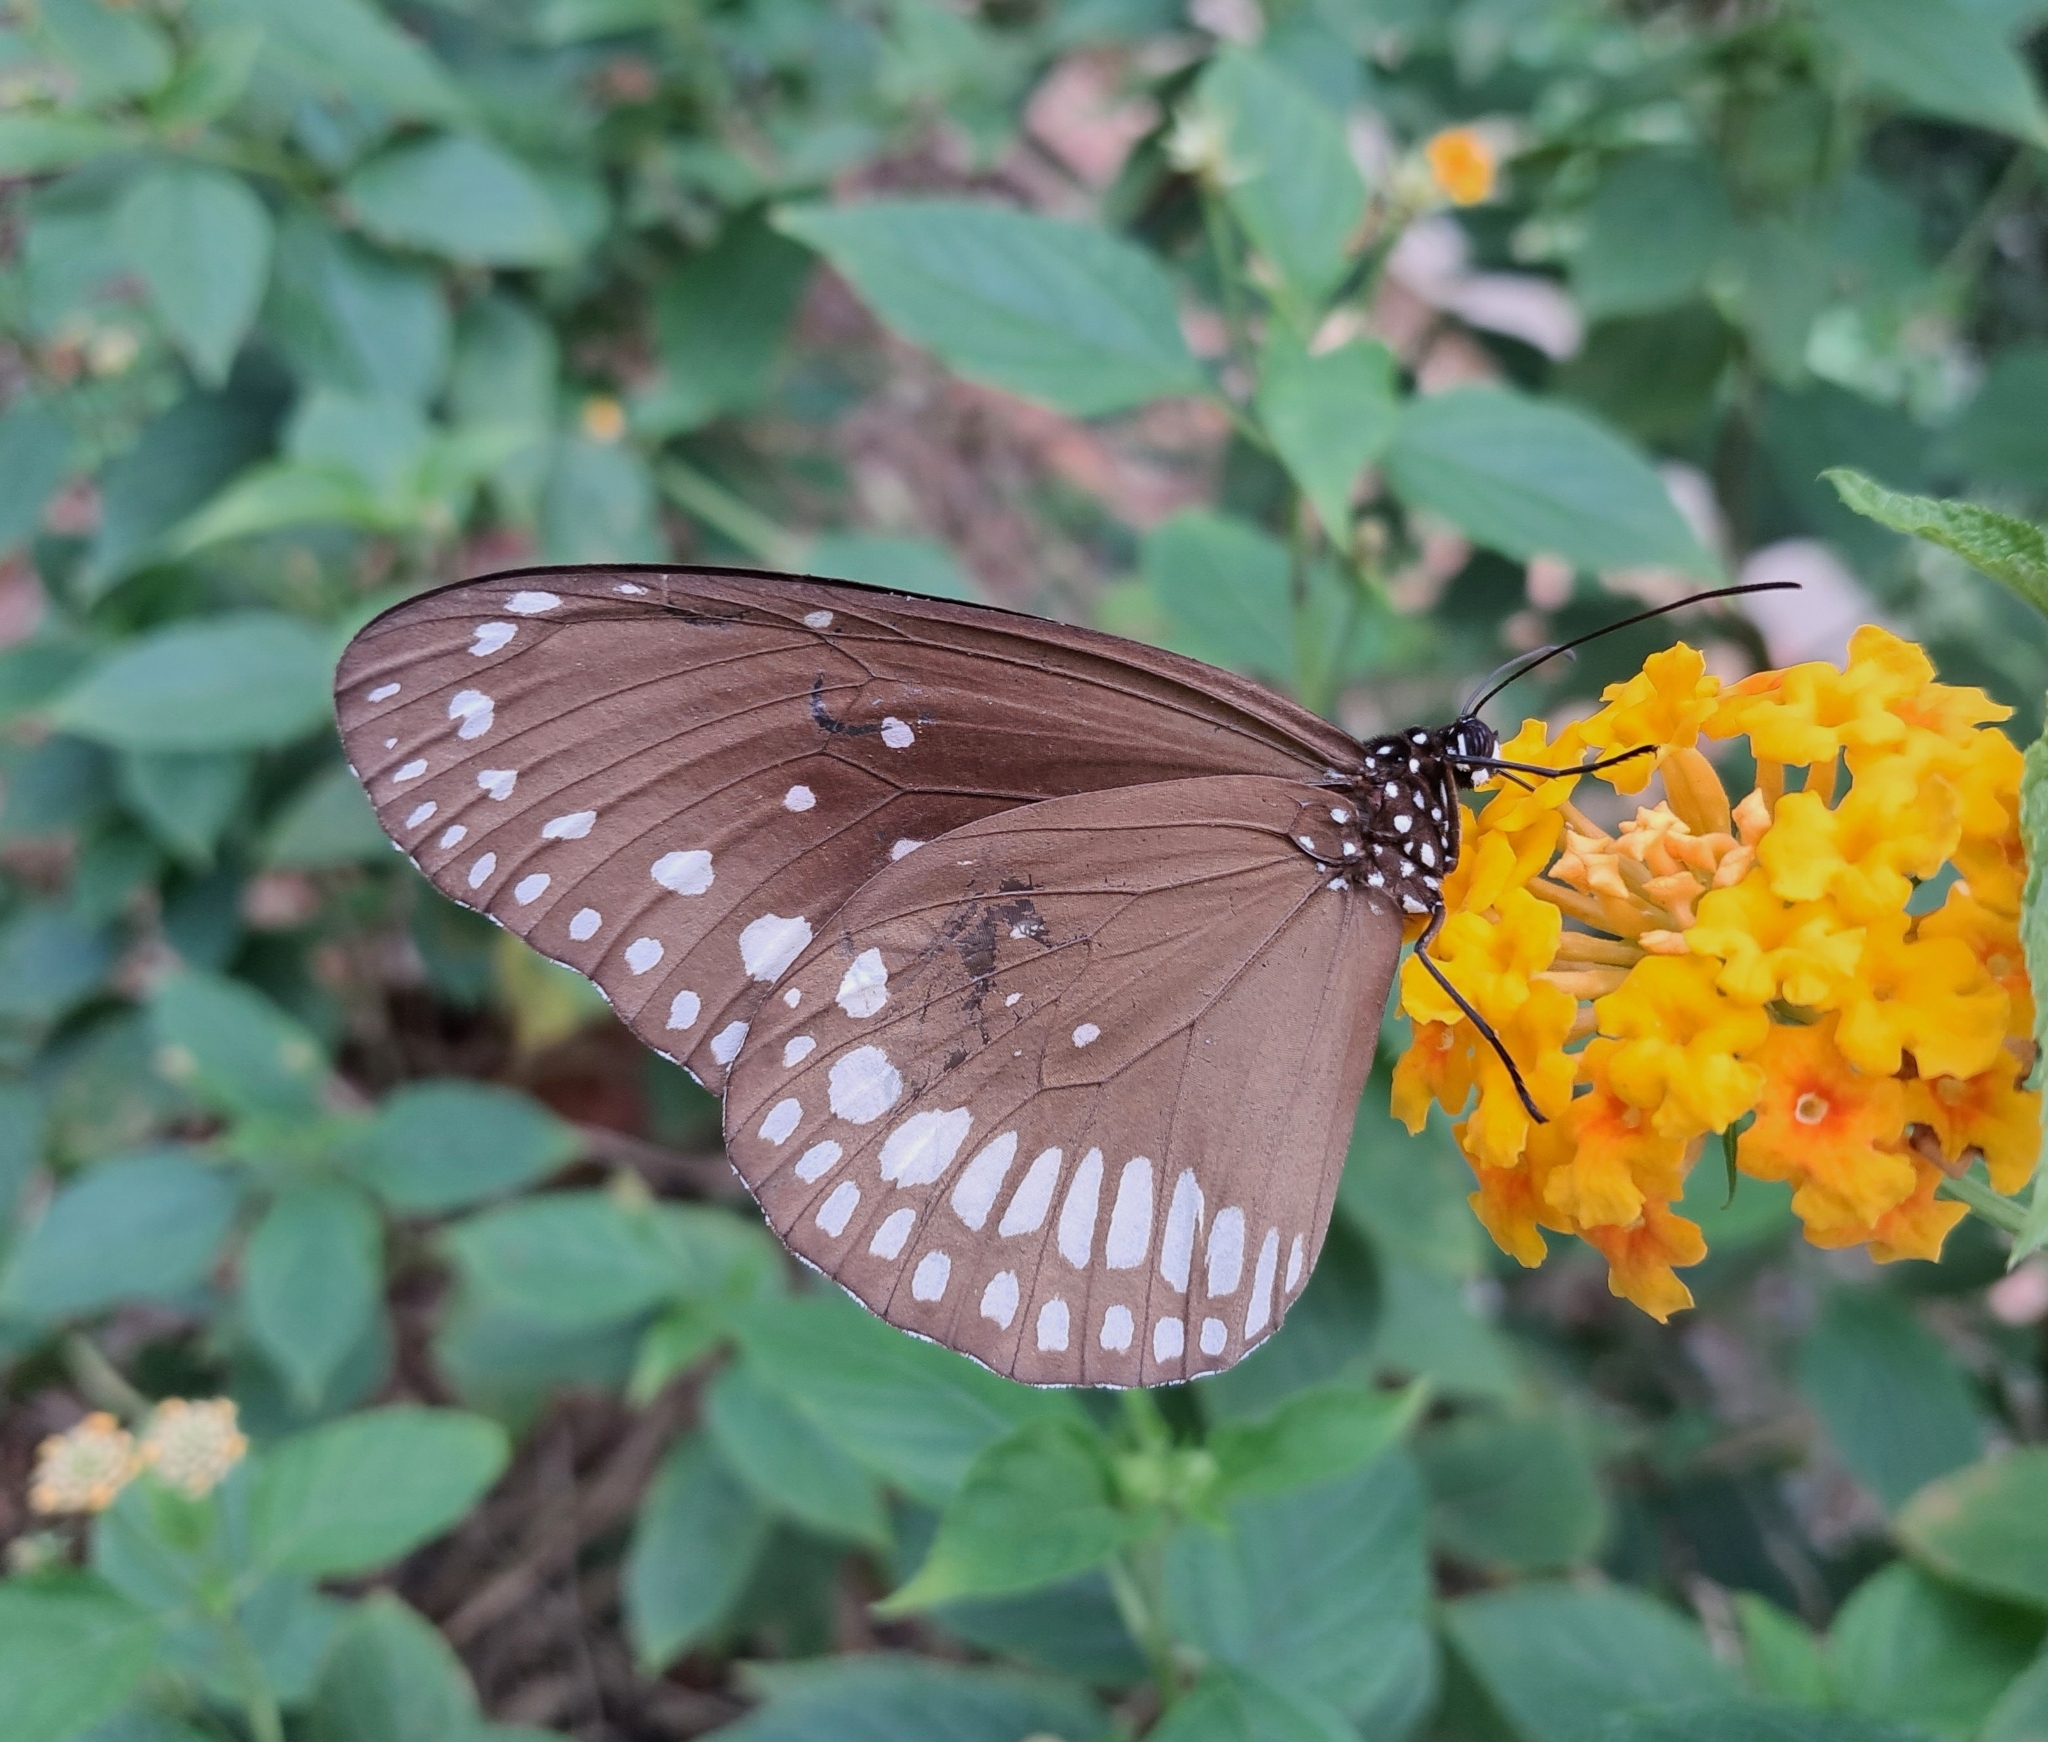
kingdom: Animalia
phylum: Arthropoda
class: Insecta
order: Lepidoptera
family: Nymphalidae
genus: Euploea
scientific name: Euploea core
